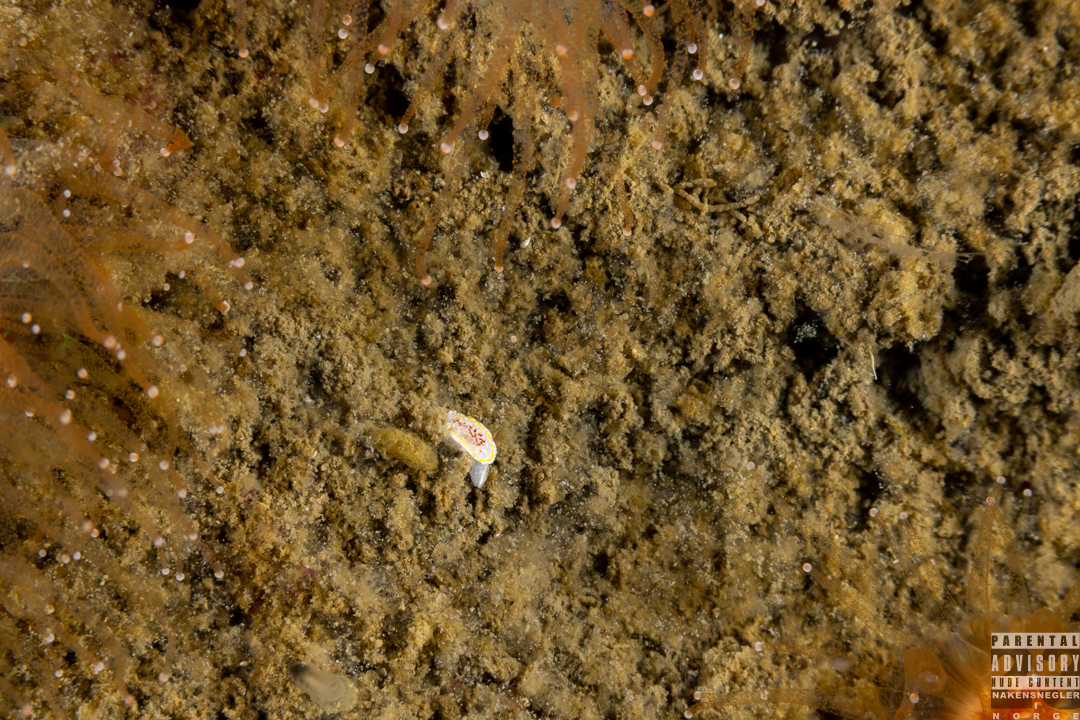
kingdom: Animalia
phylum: Mollusca
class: Gastropoda
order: Nudibranchia
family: Calycidorididae
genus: Diaphorodoris
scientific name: Diaphorodoris luteocincta
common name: Fried egg nudibranch
